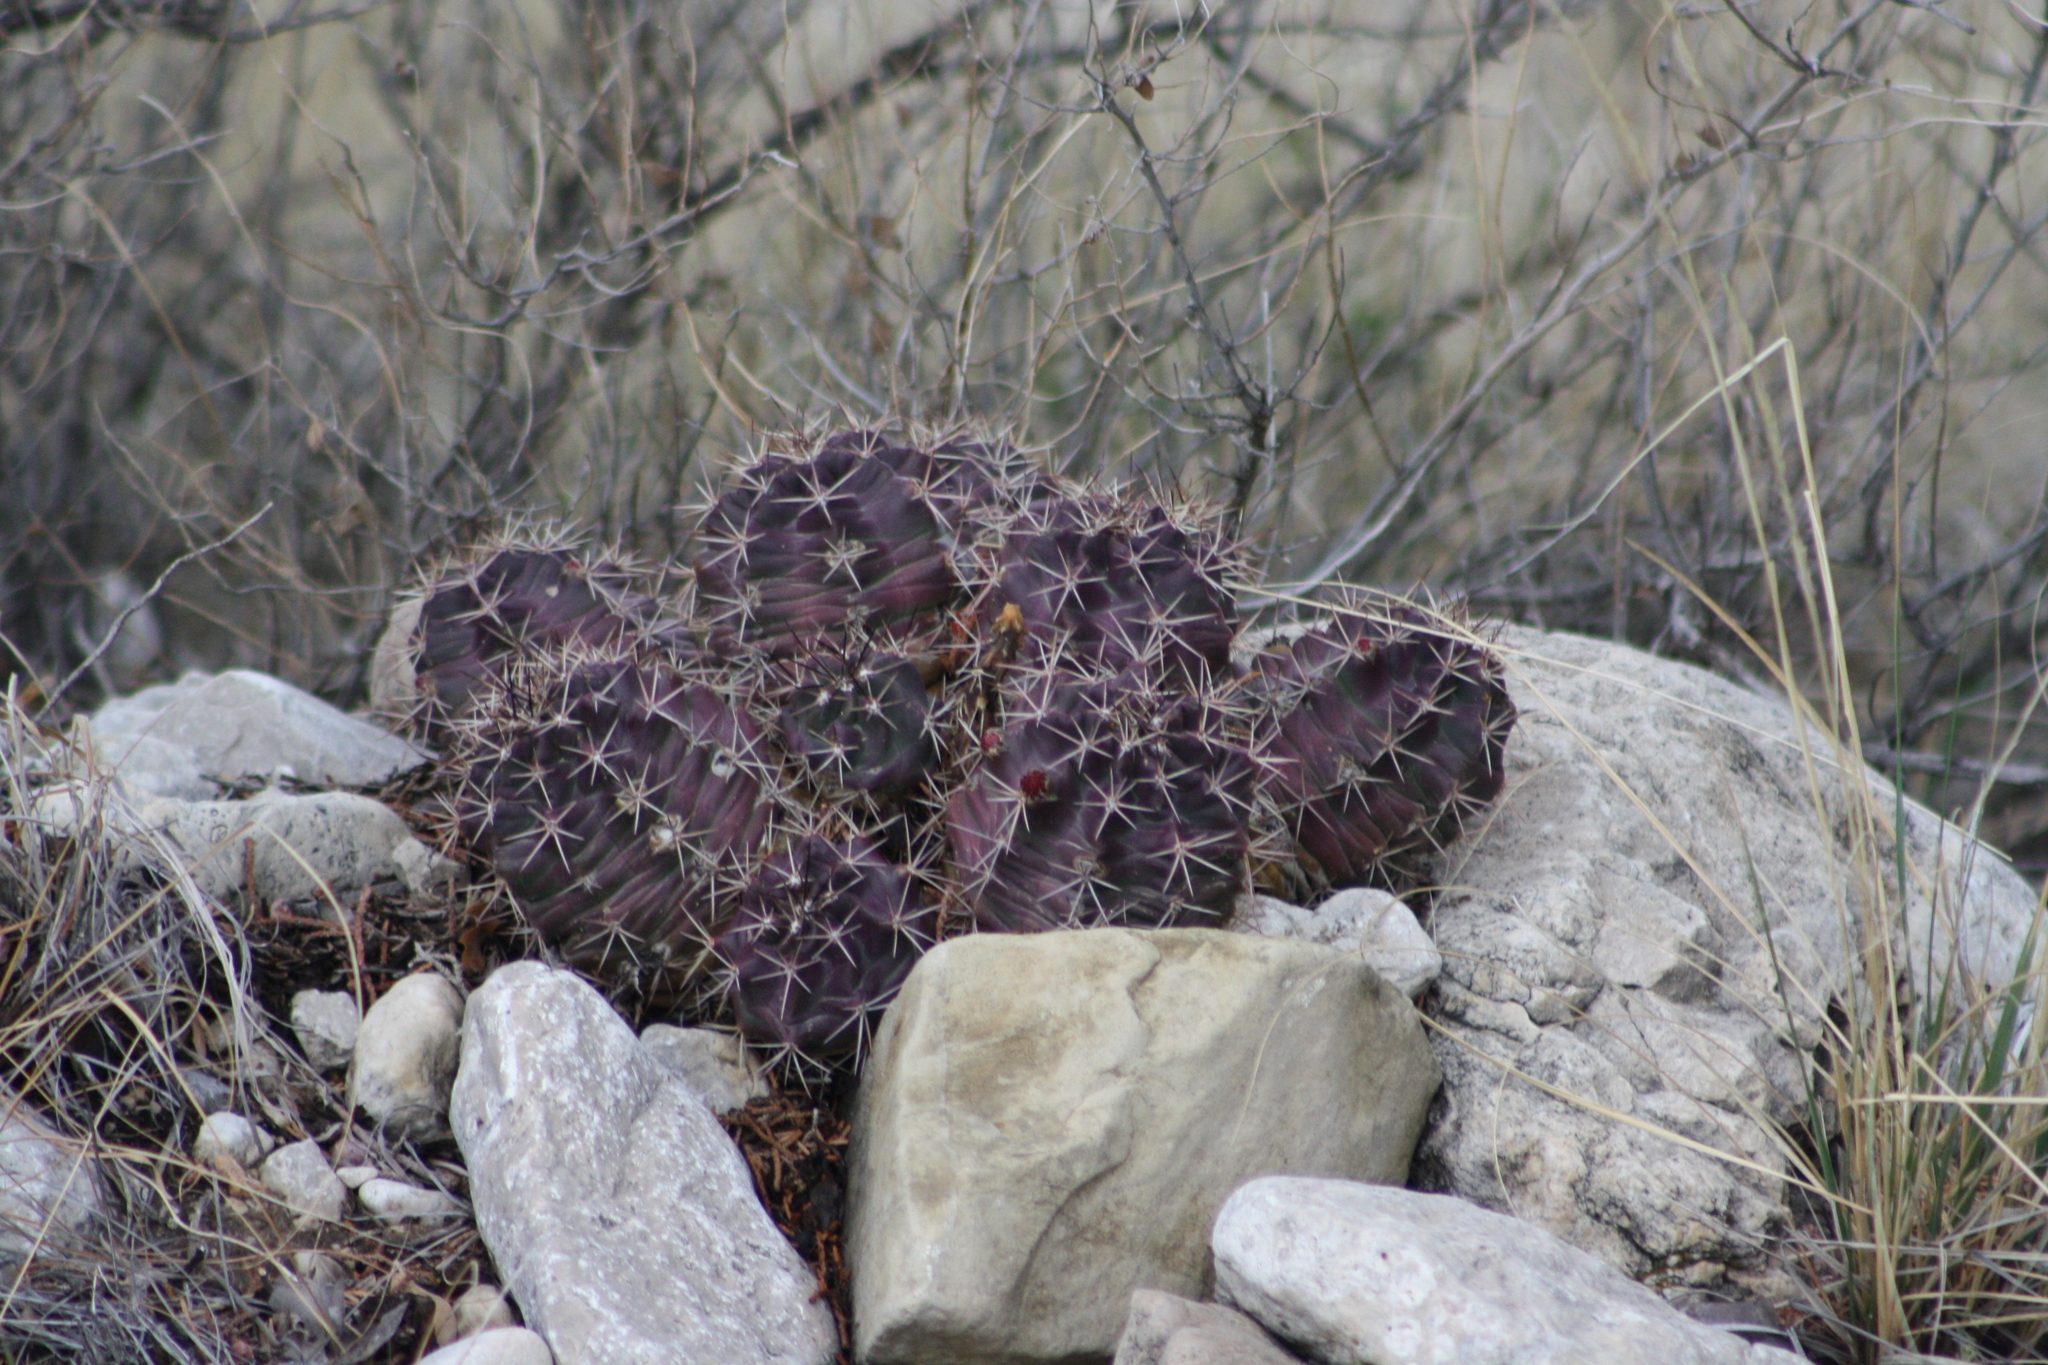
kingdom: Plantae
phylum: Tracheophyta
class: Magnoliopsida
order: Caryophyllales
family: Cactaceae
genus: Echinocereus
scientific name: Echinocereus coccineus
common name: Scarlet hedgehog cactus
